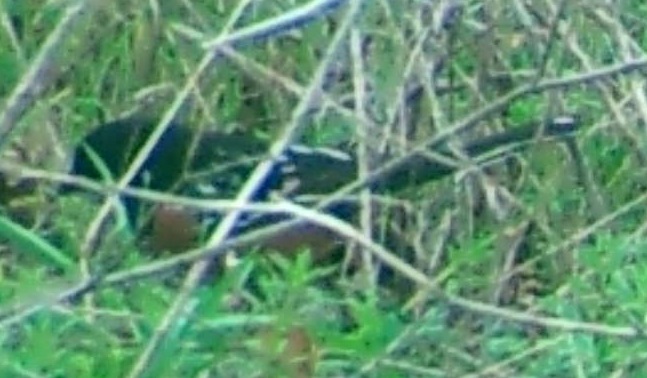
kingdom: Animalia
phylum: Chordata
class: Aves
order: Passeriformes
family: Passerellidae
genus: Pipilo
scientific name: Pipilo maculatus
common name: Spotted towhee
